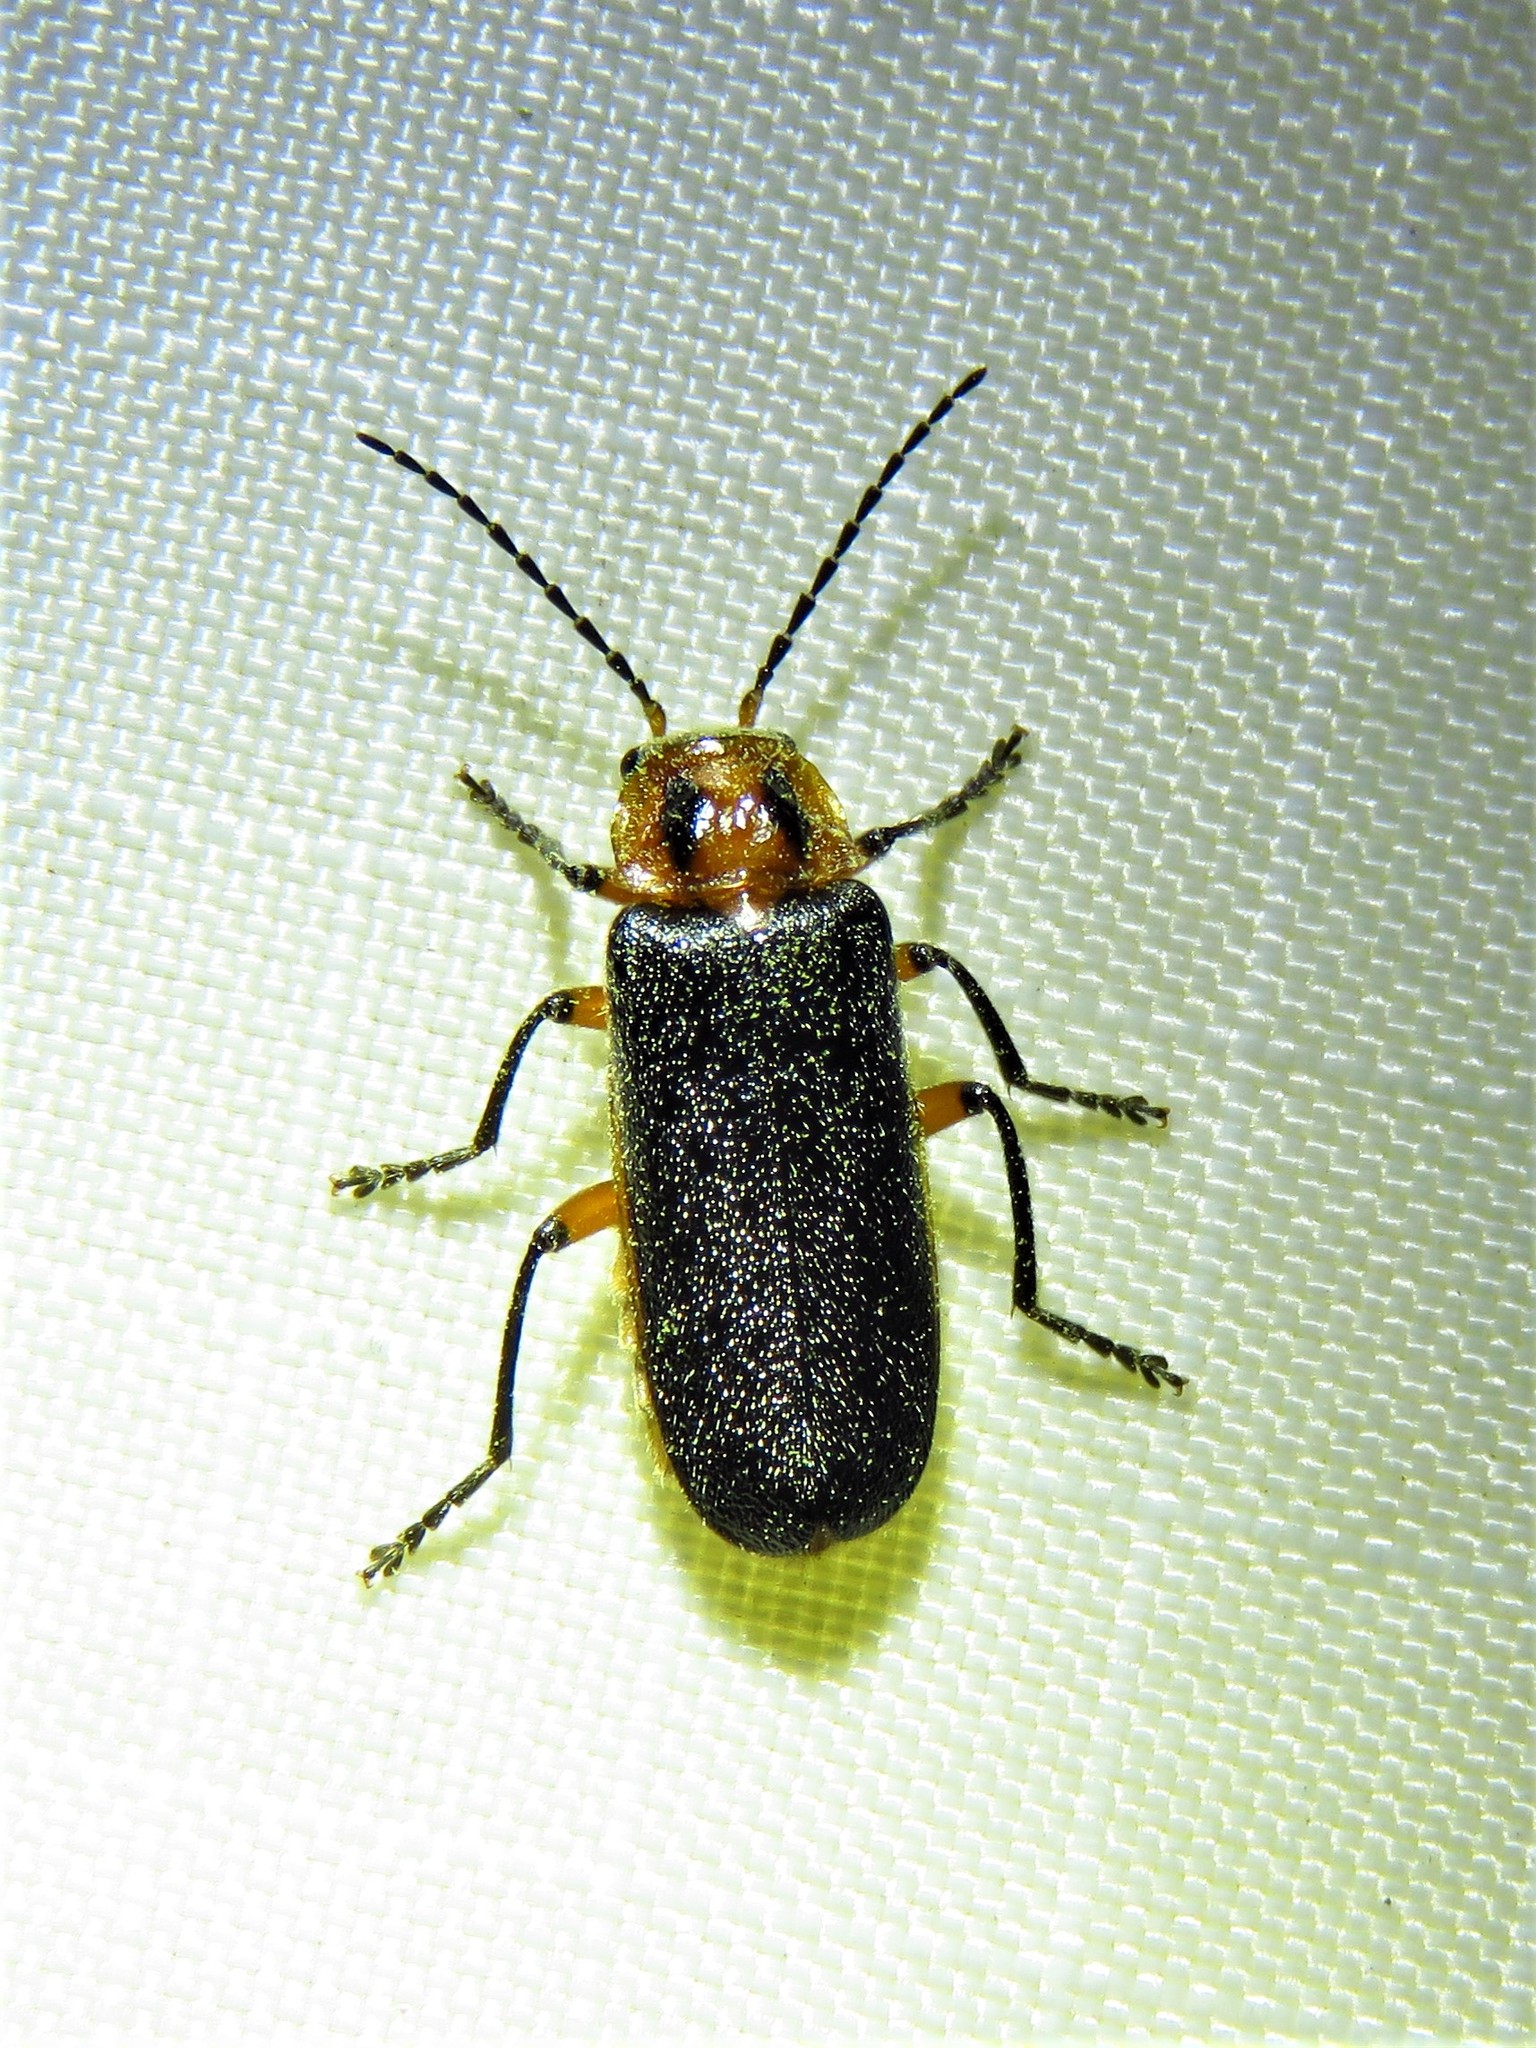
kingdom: Animalia
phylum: Arthropoda
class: Insecta
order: Coleoptera
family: Cantharidae
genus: Atalantycha
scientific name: Atalantycha bilineata
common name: Two-lined leatherwing
